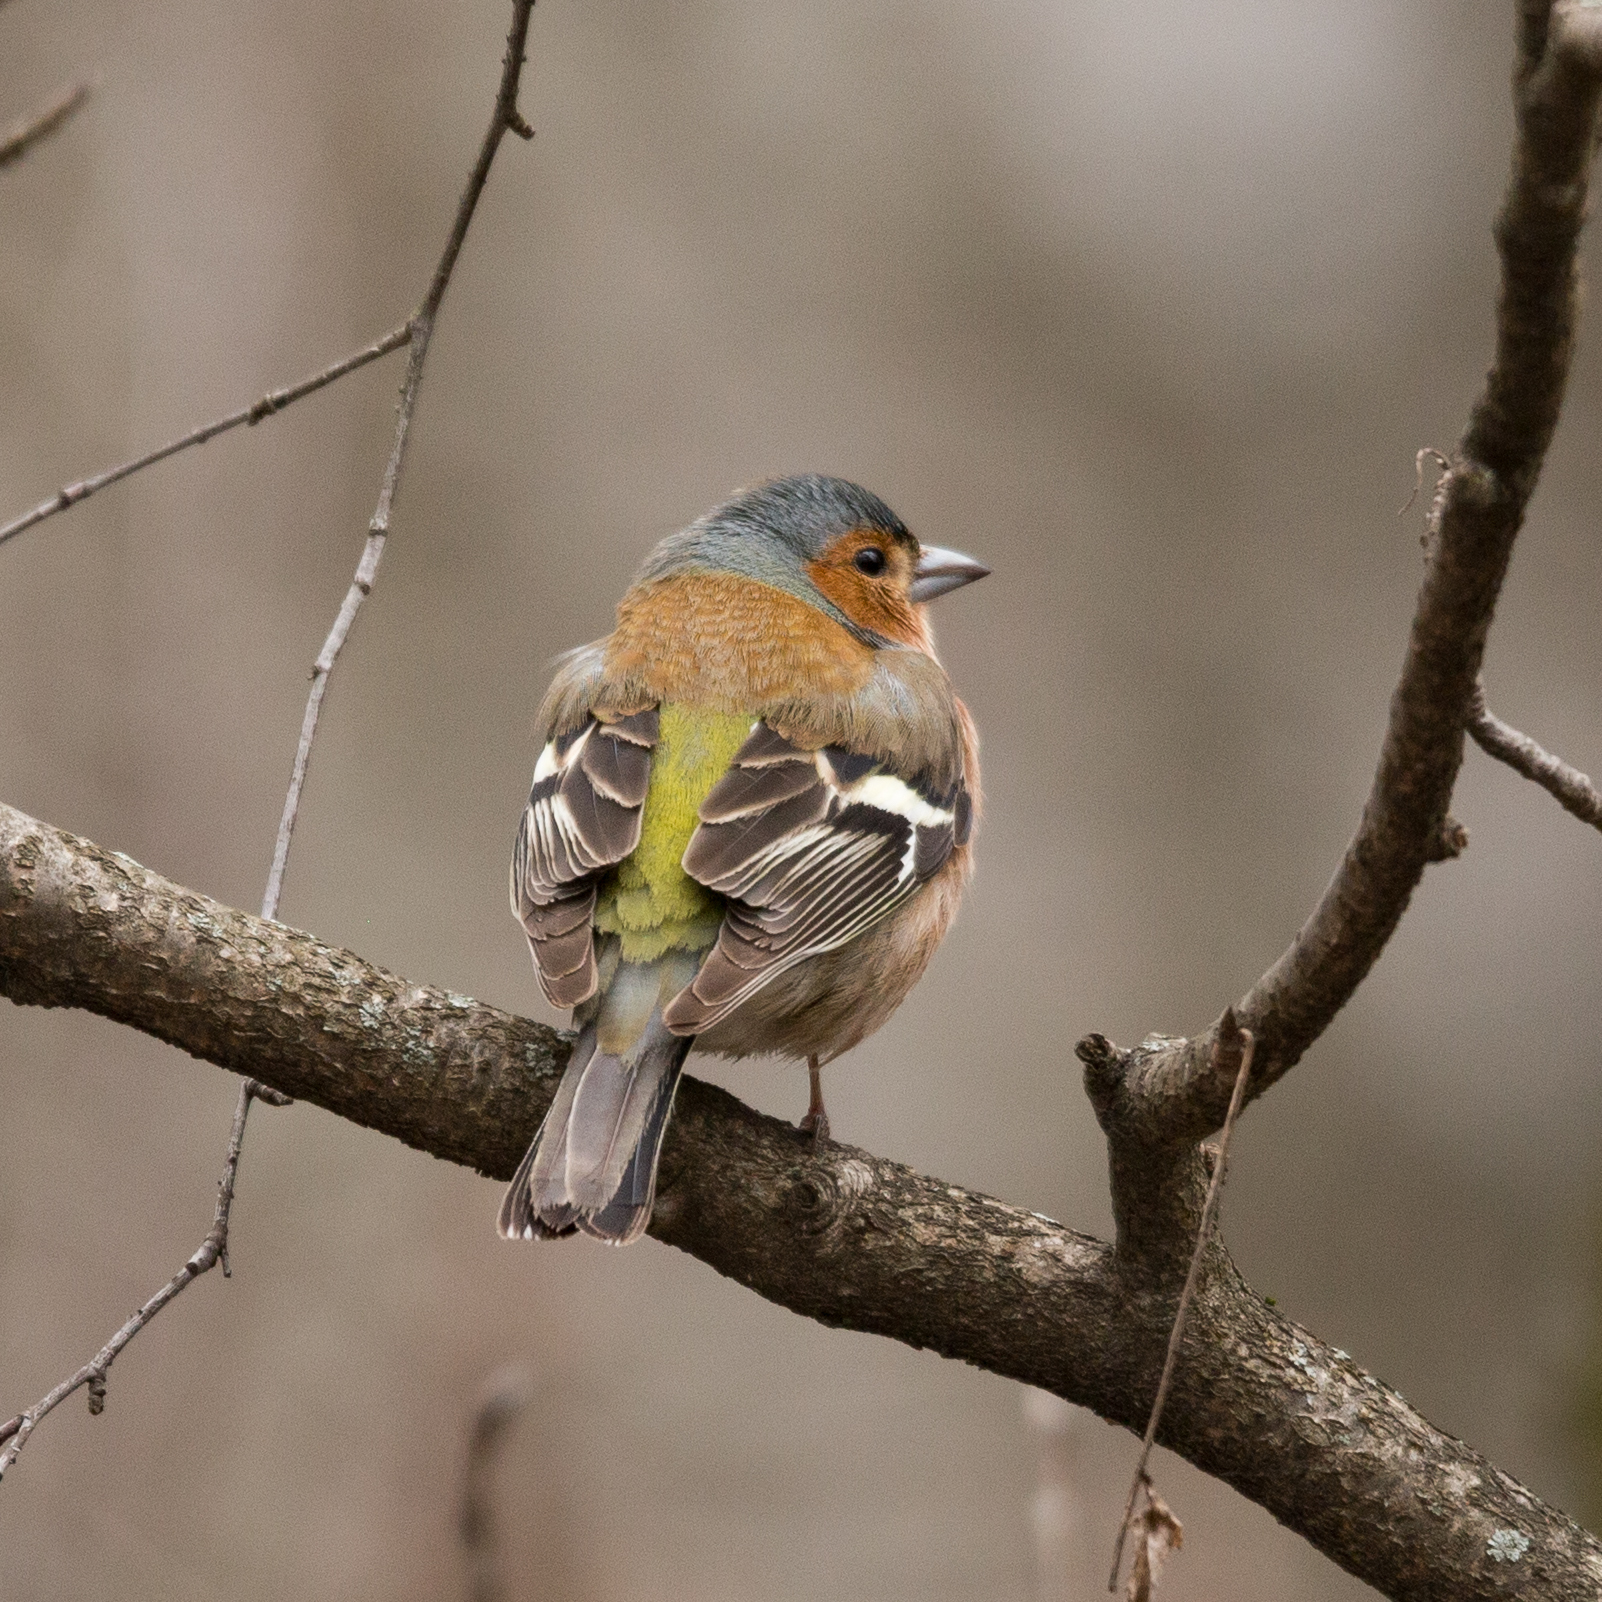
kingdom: Animalia
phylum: Chordata
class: Aves
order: Passeriformes
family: Fringillidae
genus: Fringilla
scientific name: Fringilla coelebs
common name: Common chaffinch
